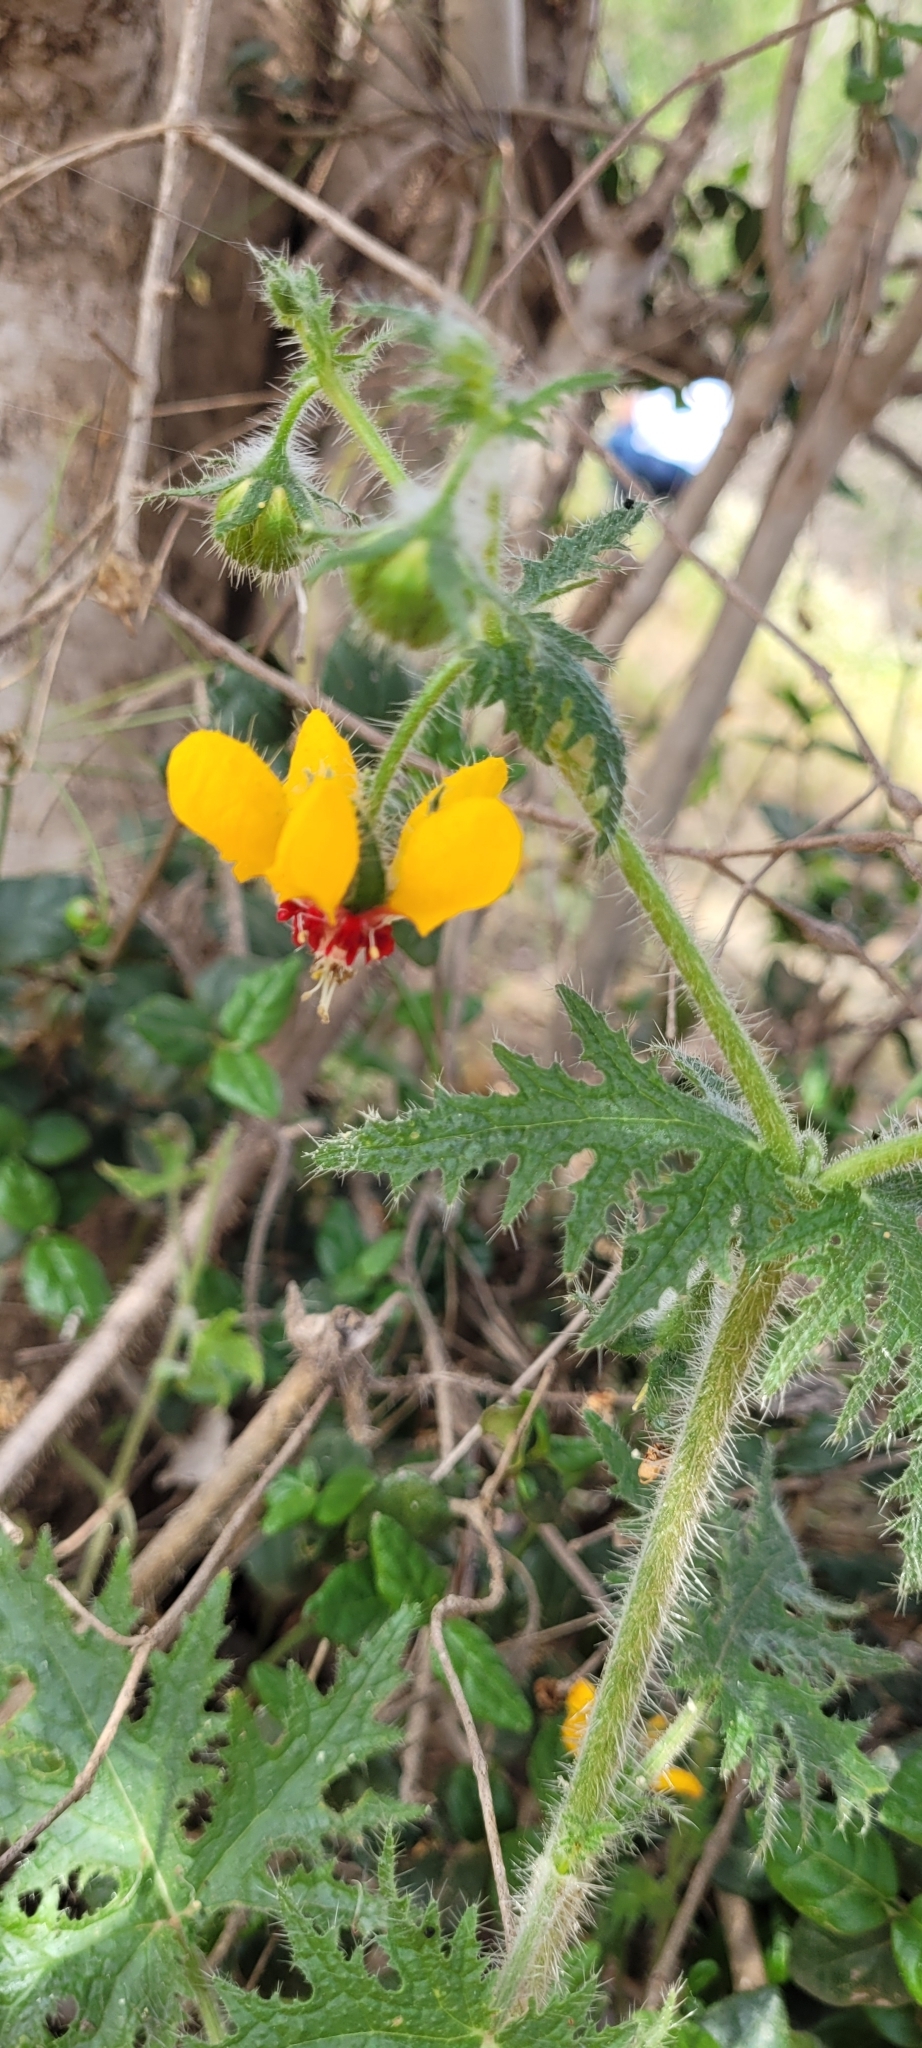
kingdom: Plantae
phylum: Tracheophyta
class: Magnoliopsida
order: Cornales
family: Loasaceae
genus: Loasa
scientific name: Loasa tricolor
